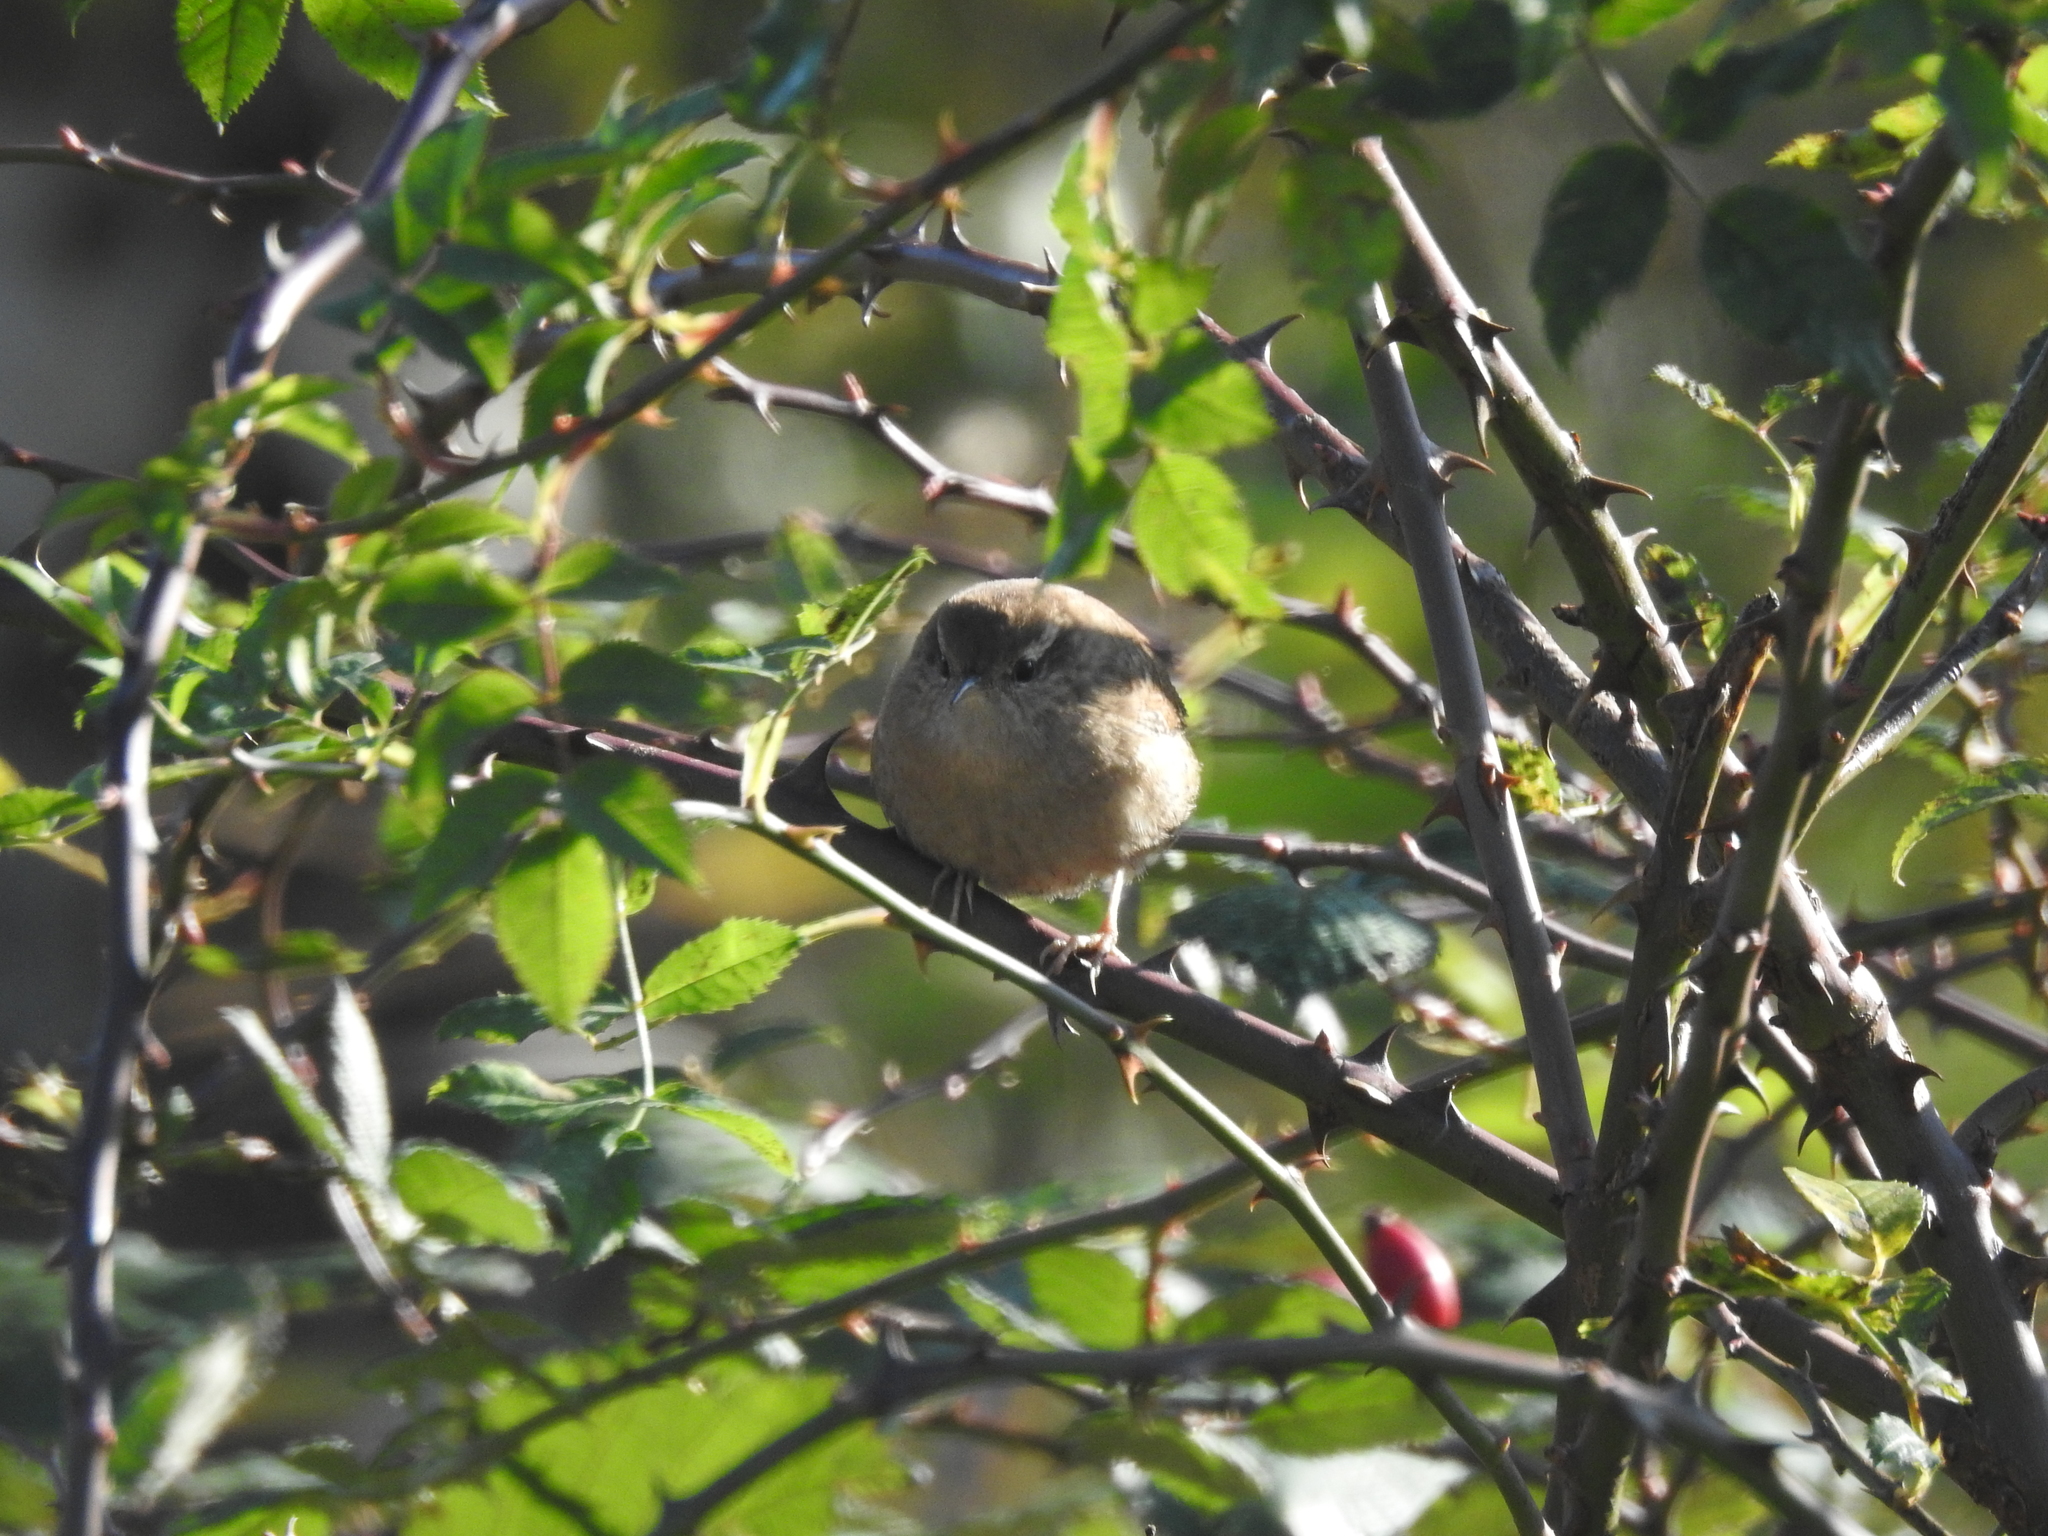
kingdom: Animalia
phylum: Chordata
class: Aves
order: Passeriformes
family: Troglodytidae
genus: Troglodytes
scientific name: Troglodytes troglodytes
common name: Eurasian wren
